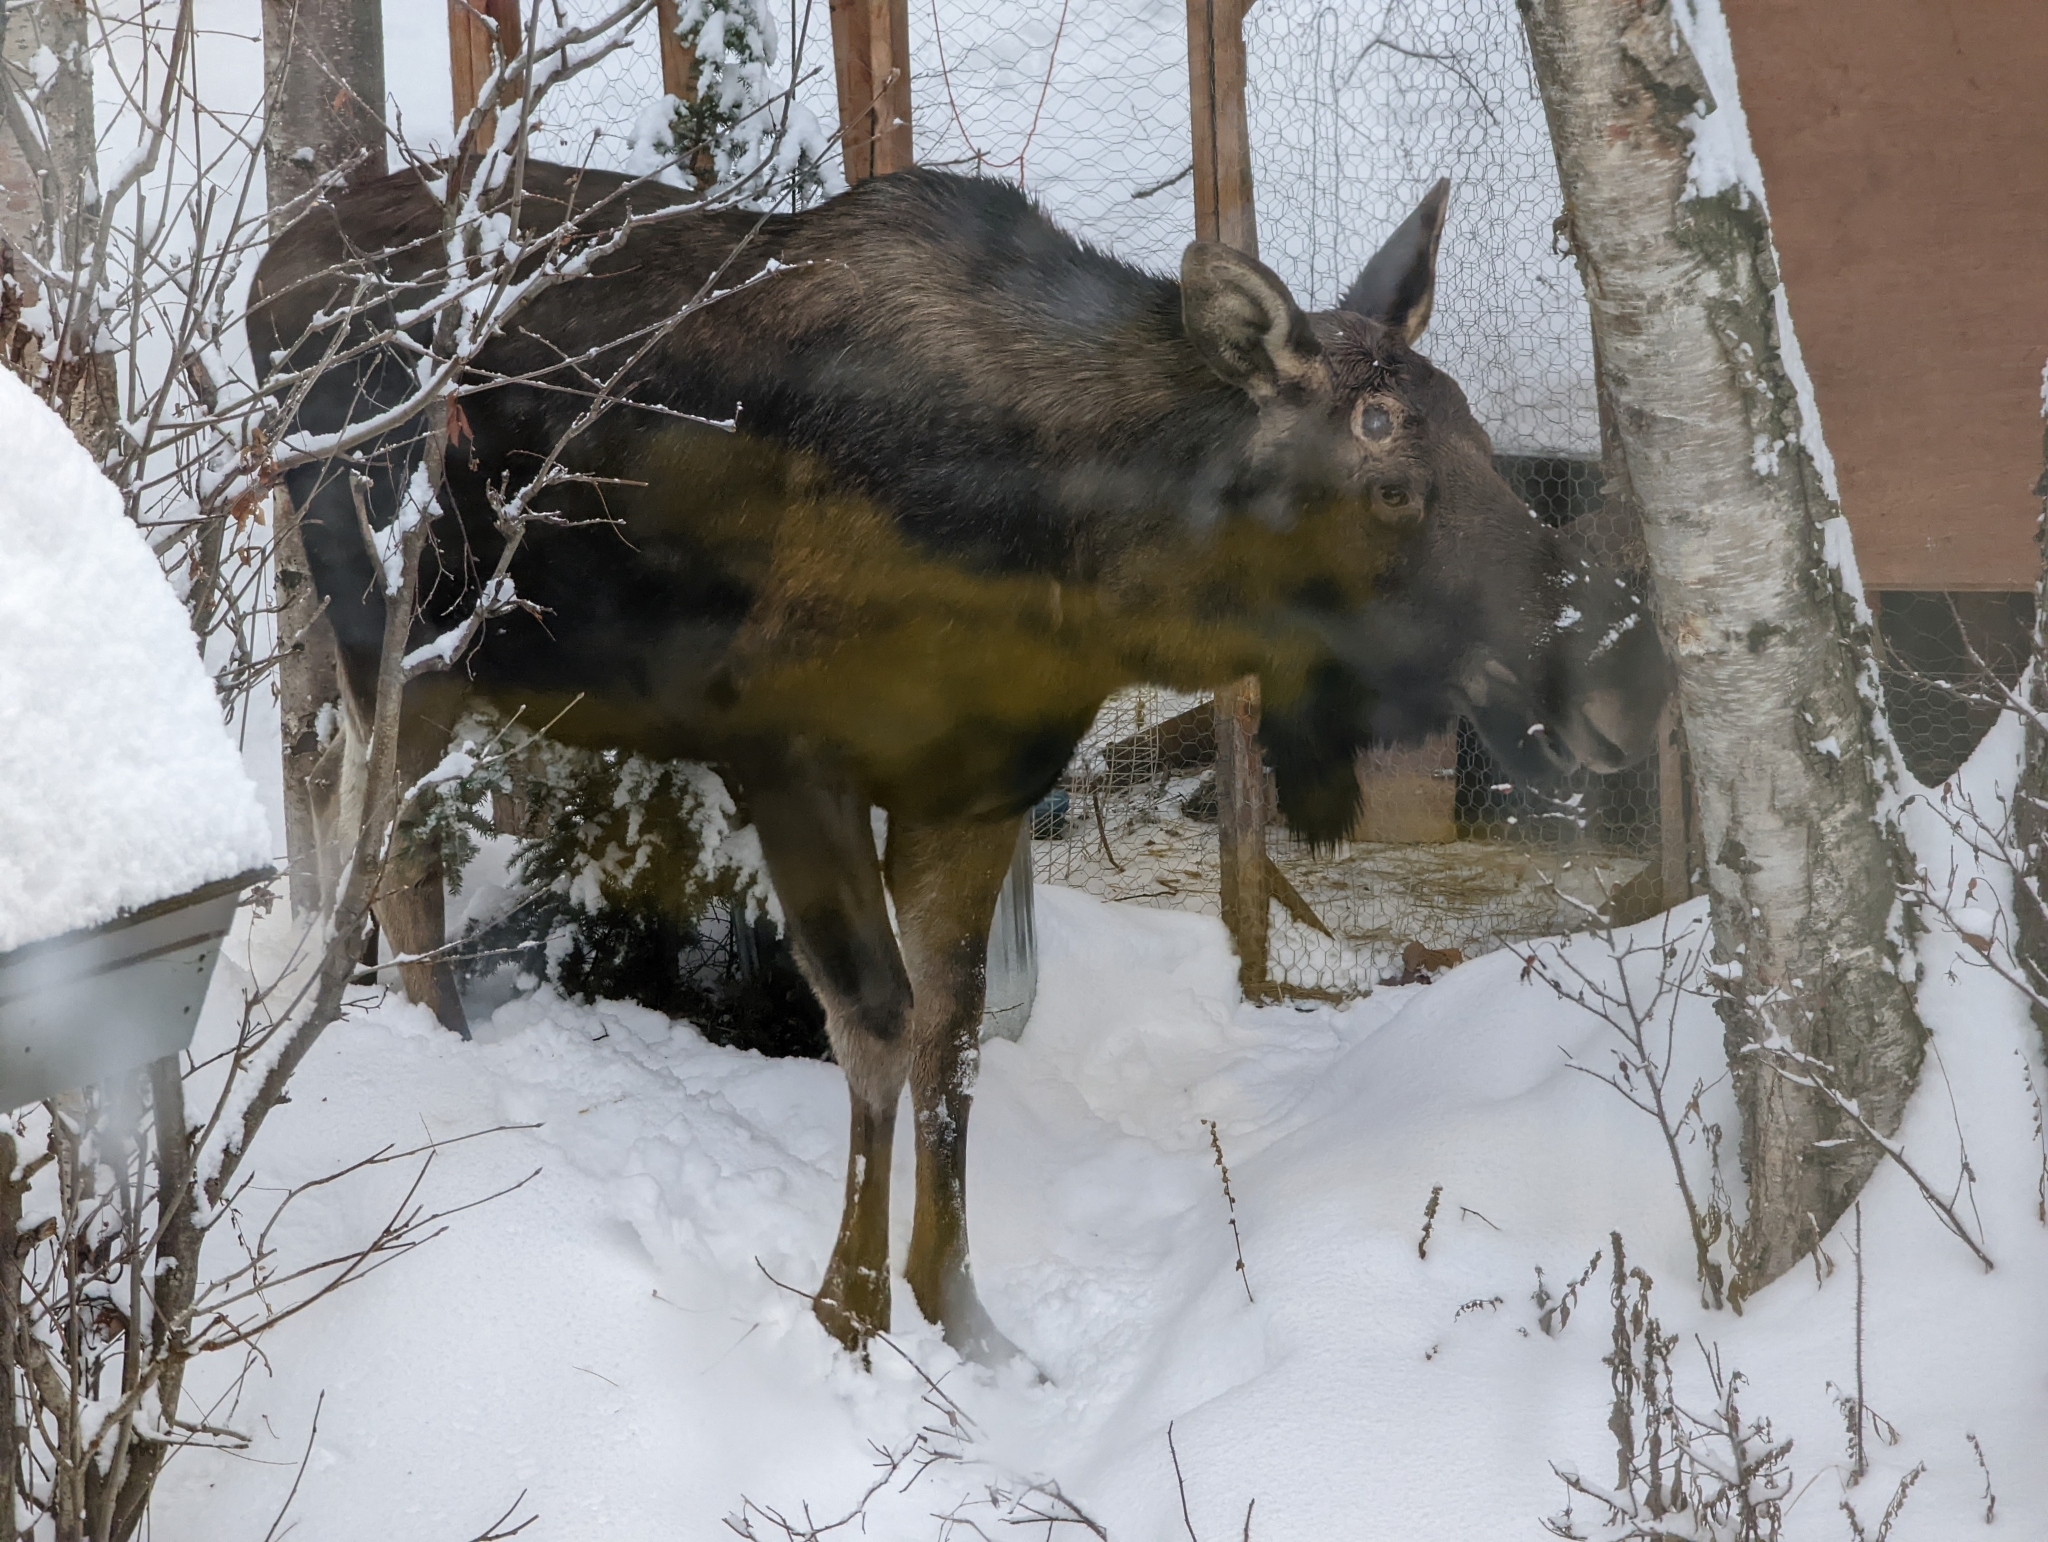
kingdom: Animalia
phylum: Chordata
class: Mammalia
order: Artiodactyla
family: Cervidae
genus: Alces
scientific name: Alces alces
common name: Moose
